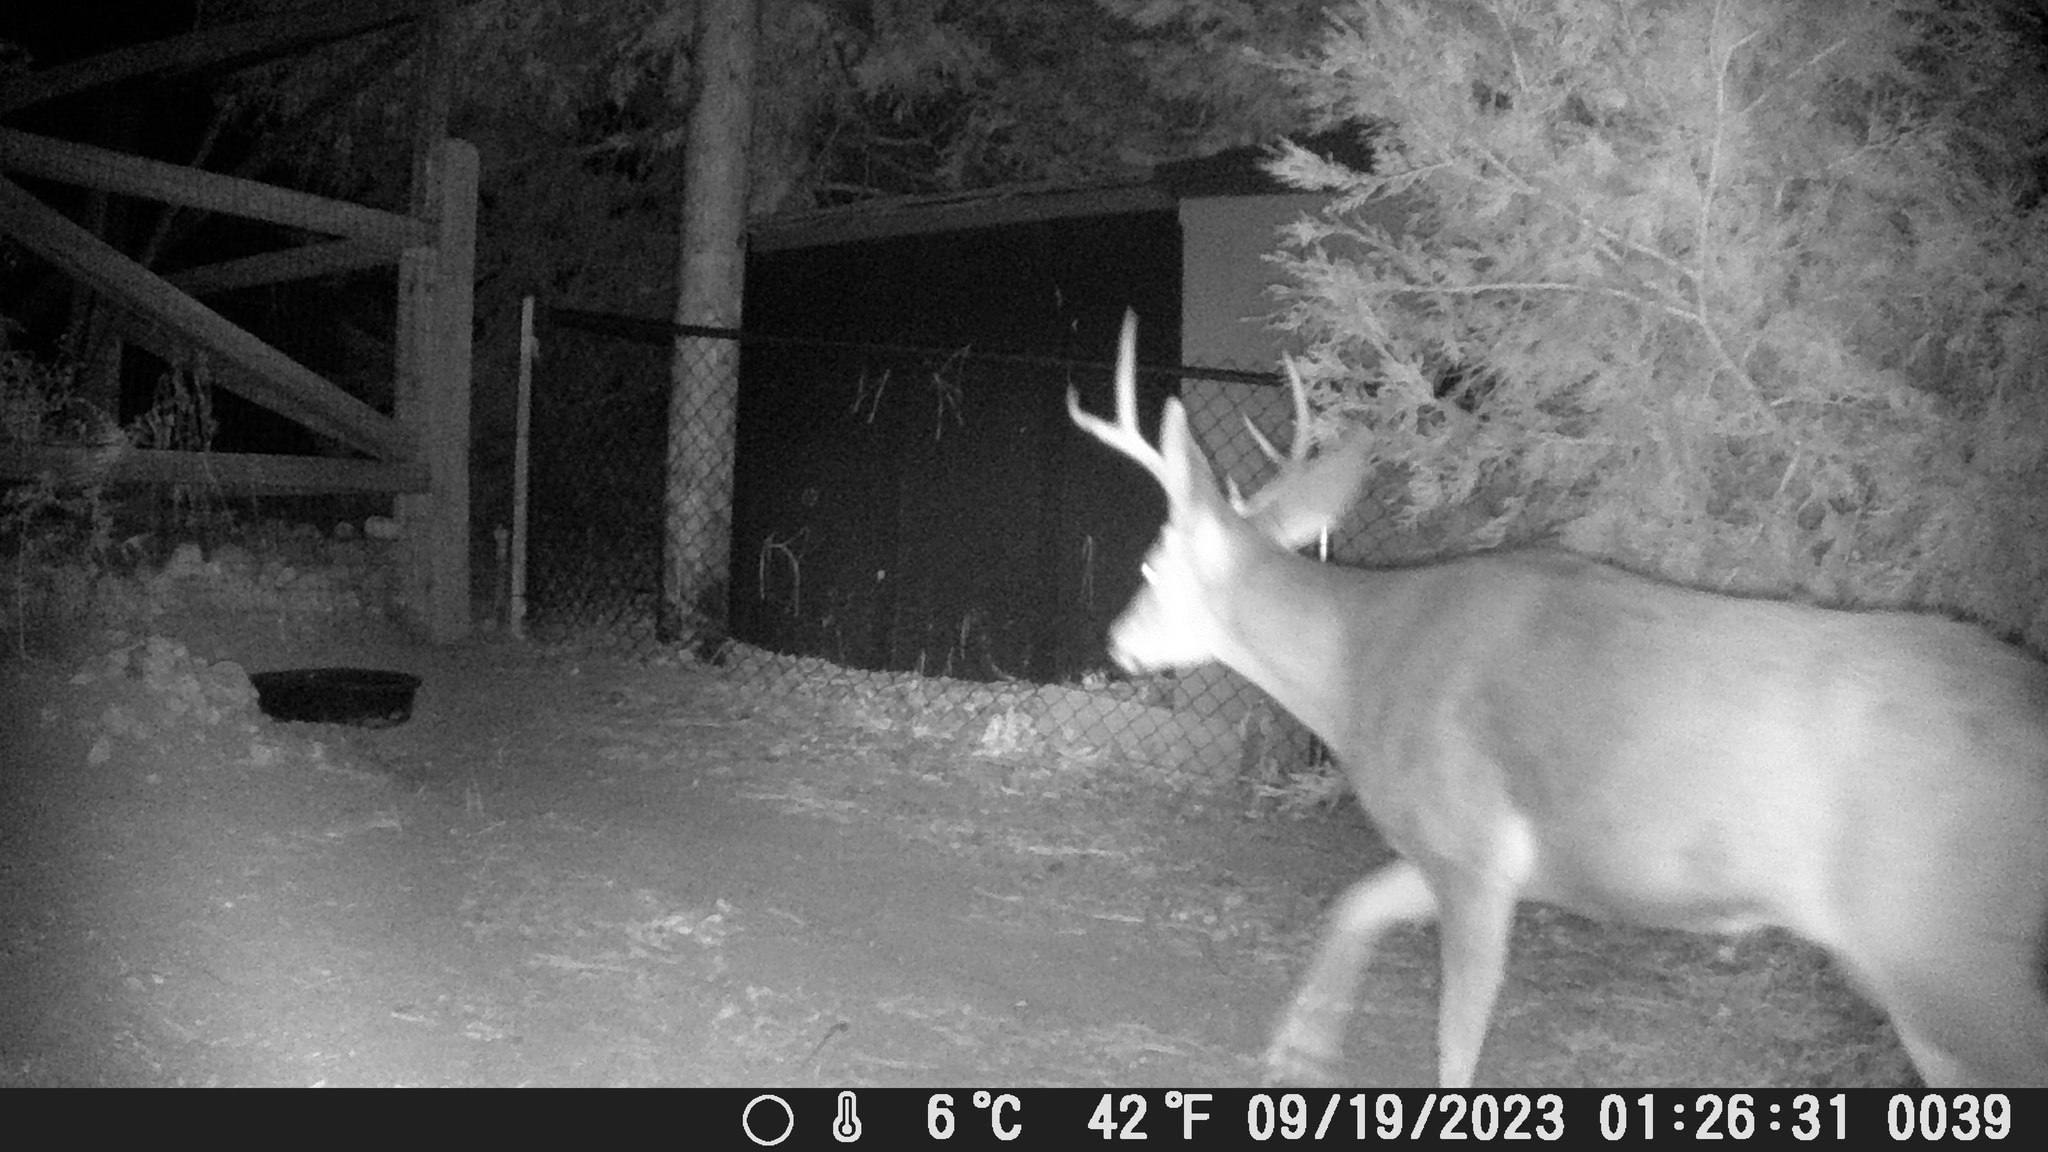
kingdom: Animalia
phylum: Chordata
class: Mammalia
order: Artiodactyla
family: Cervidae
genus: Odocoileus
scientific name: Odocoileus hemionus
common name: Mule deer
